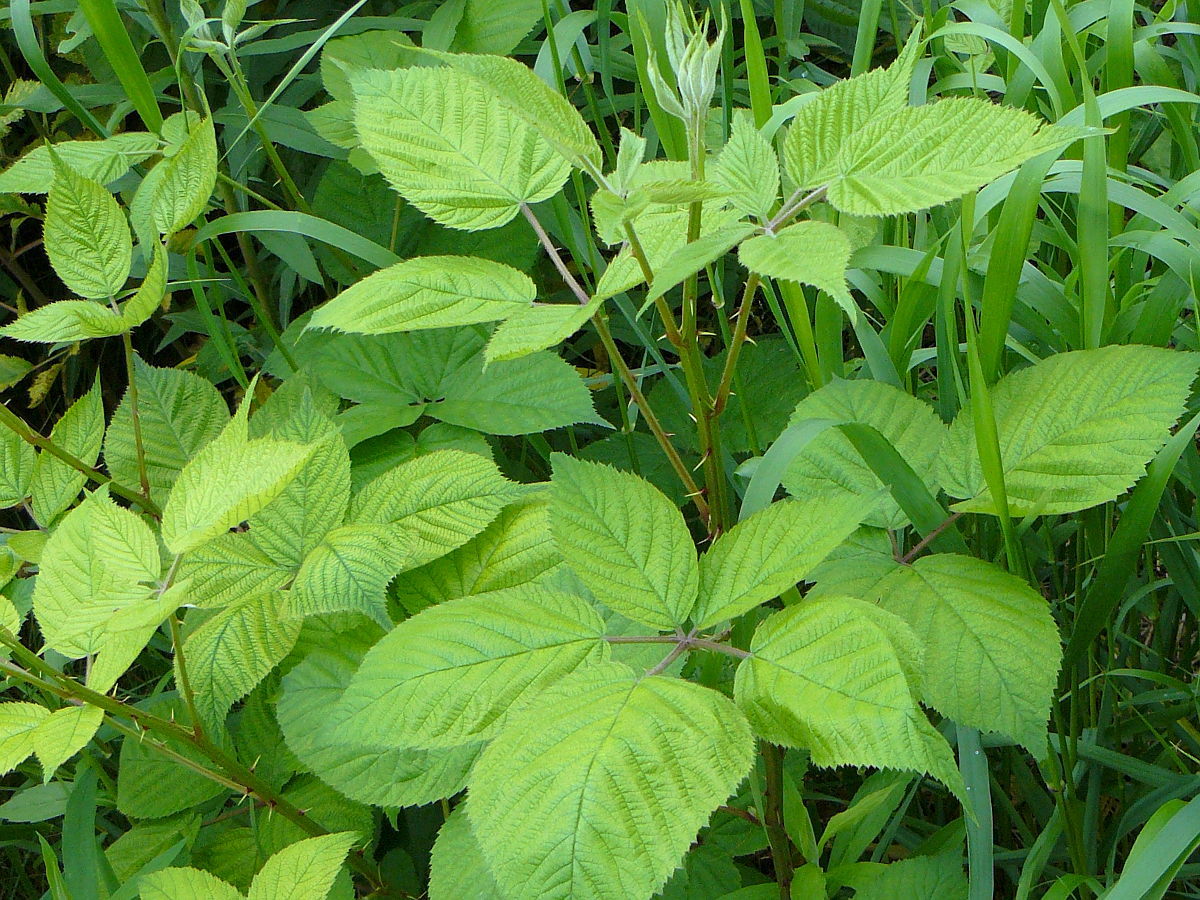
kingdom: Plantae
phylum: Tracheophyta
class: Magnoliopsida
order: Rosales
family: Rosaceae
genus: Rubus
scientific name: Rubus allegheniensis
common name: Allegheny blackberry
